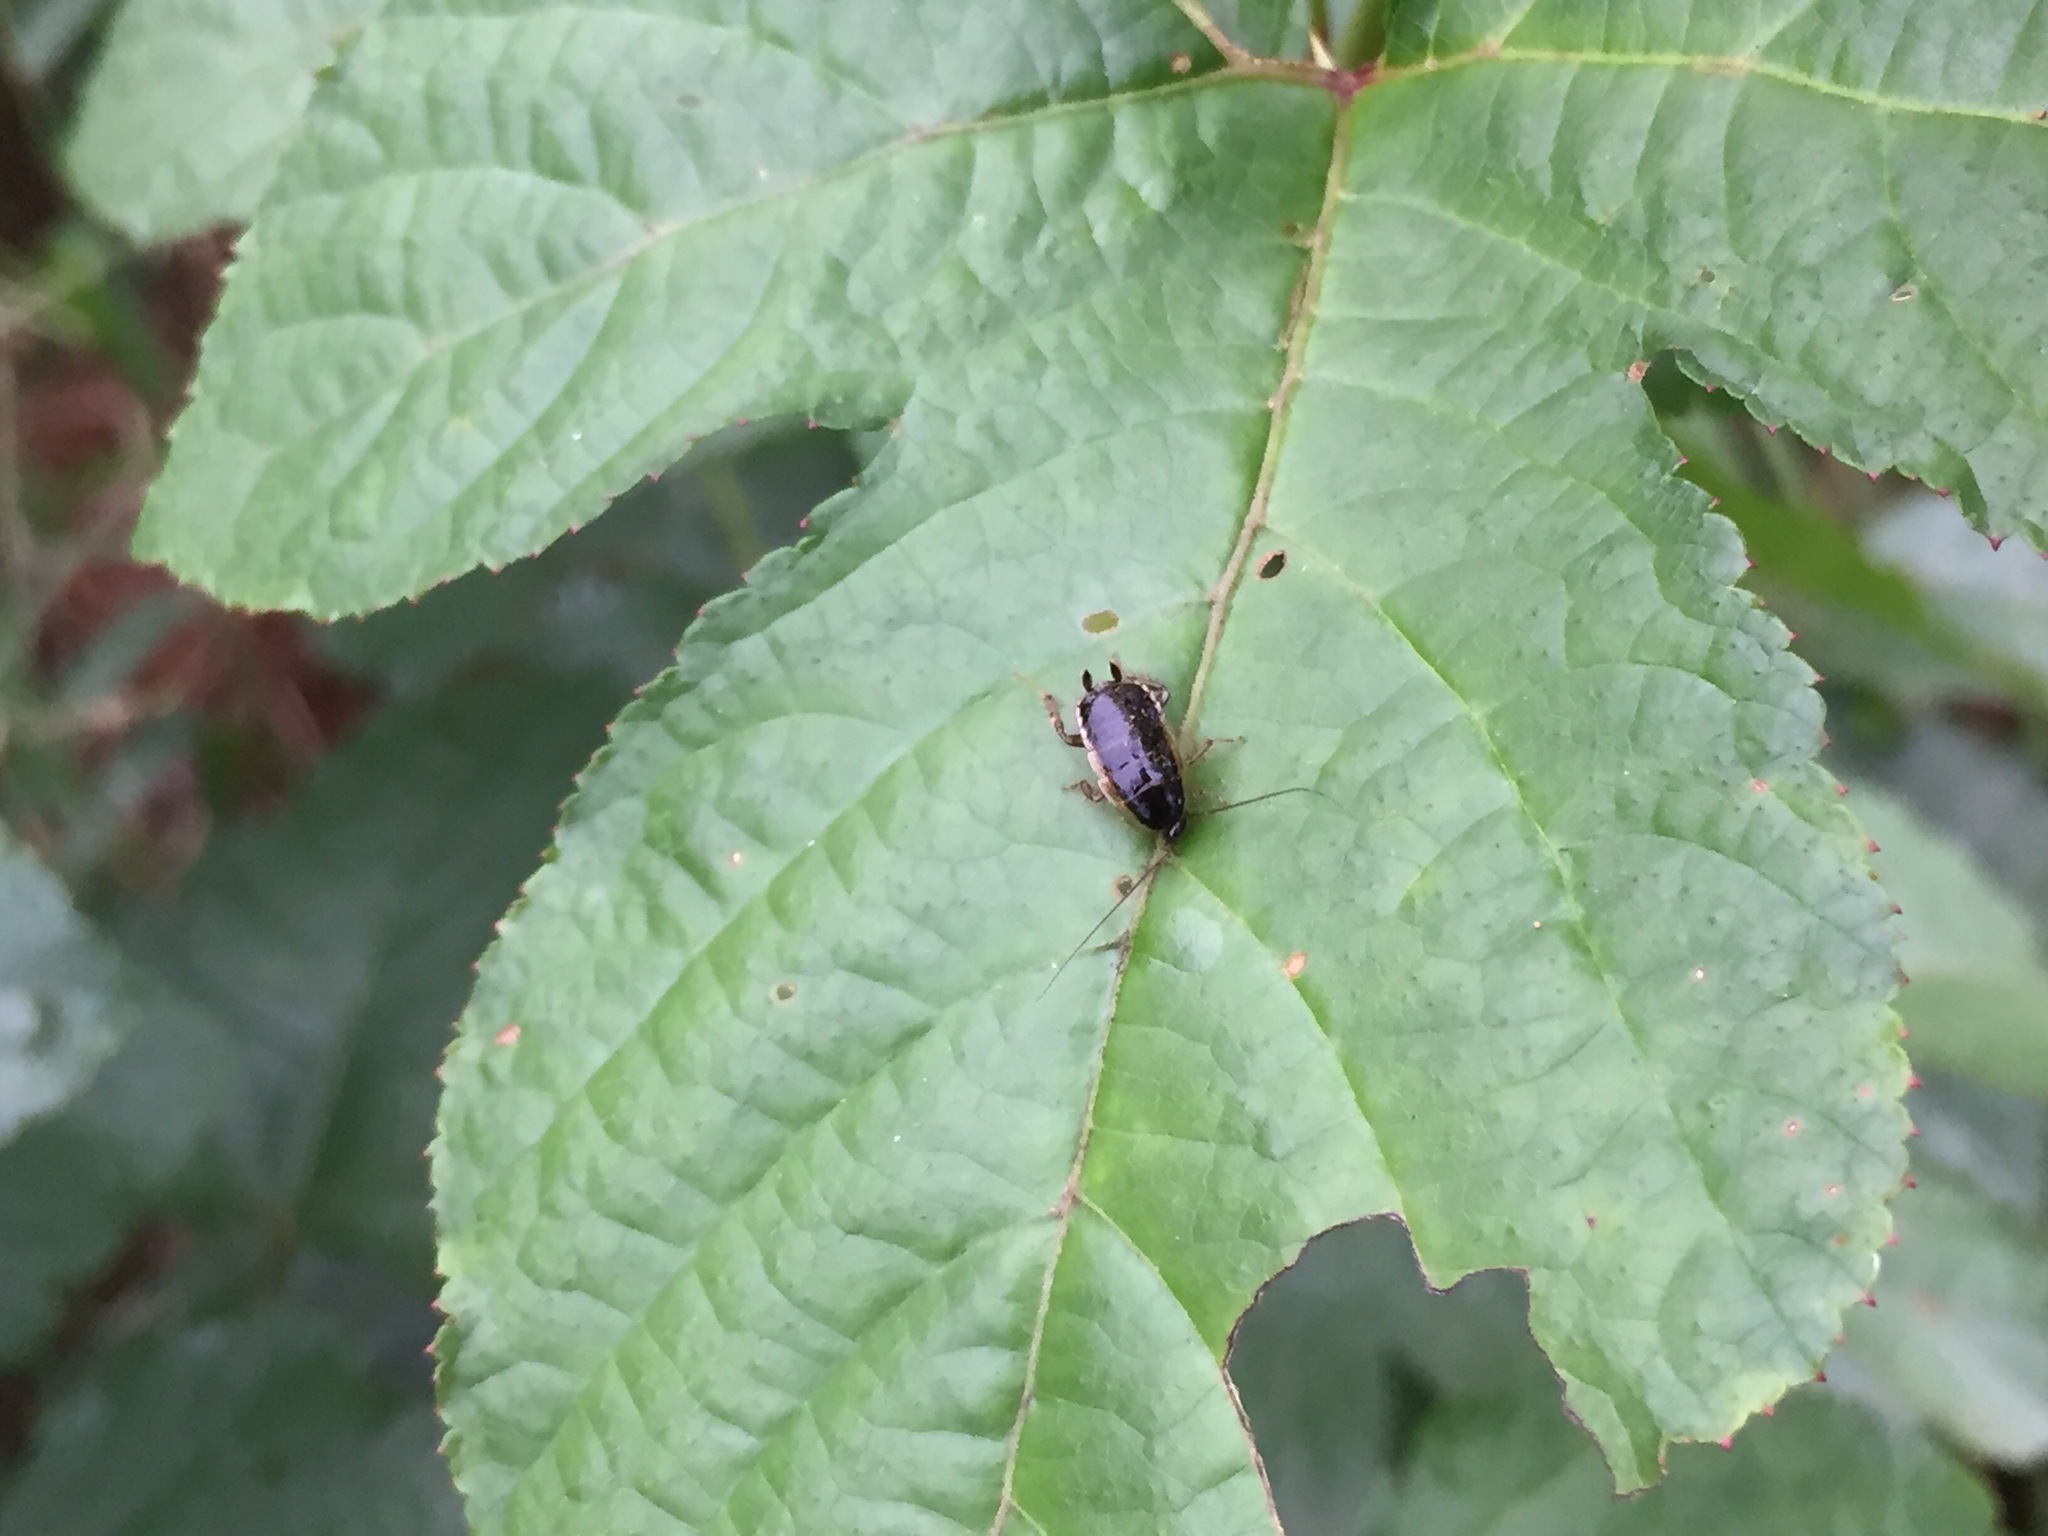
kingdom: Animalia
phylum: Arthropoda
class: Insecta
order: Blattodea
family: Ectobiidae
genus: Blattella
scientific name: Blattella nipponica
